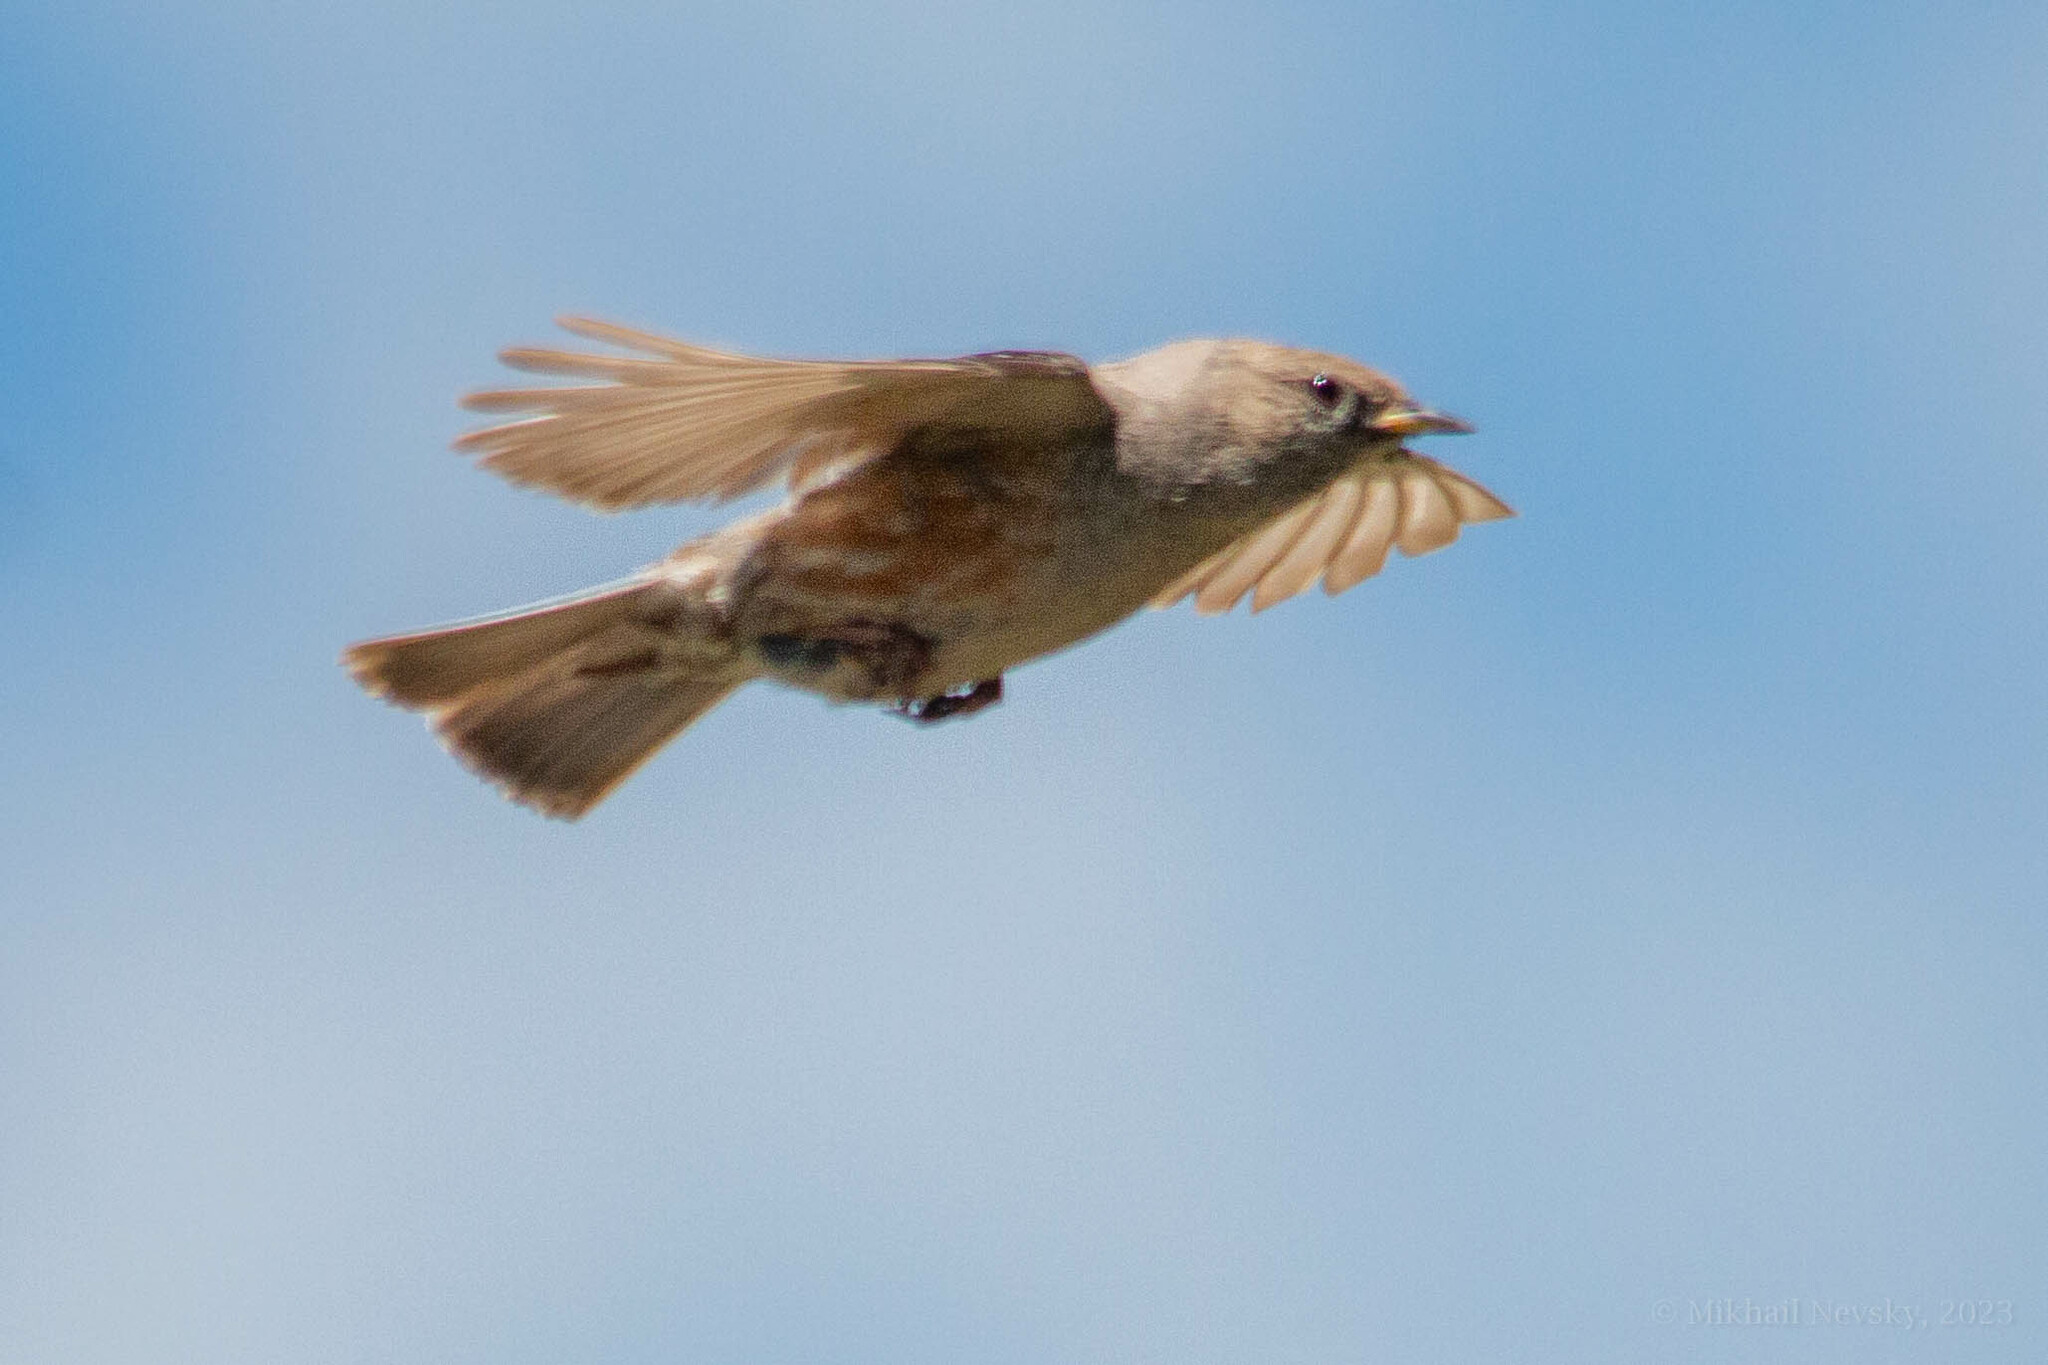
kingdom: Animalia
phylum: Chordata
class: Aves
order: Passeriformes
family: Prunellidae
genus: Prunella
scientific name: Prunella collaris
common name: Alpine accentor
